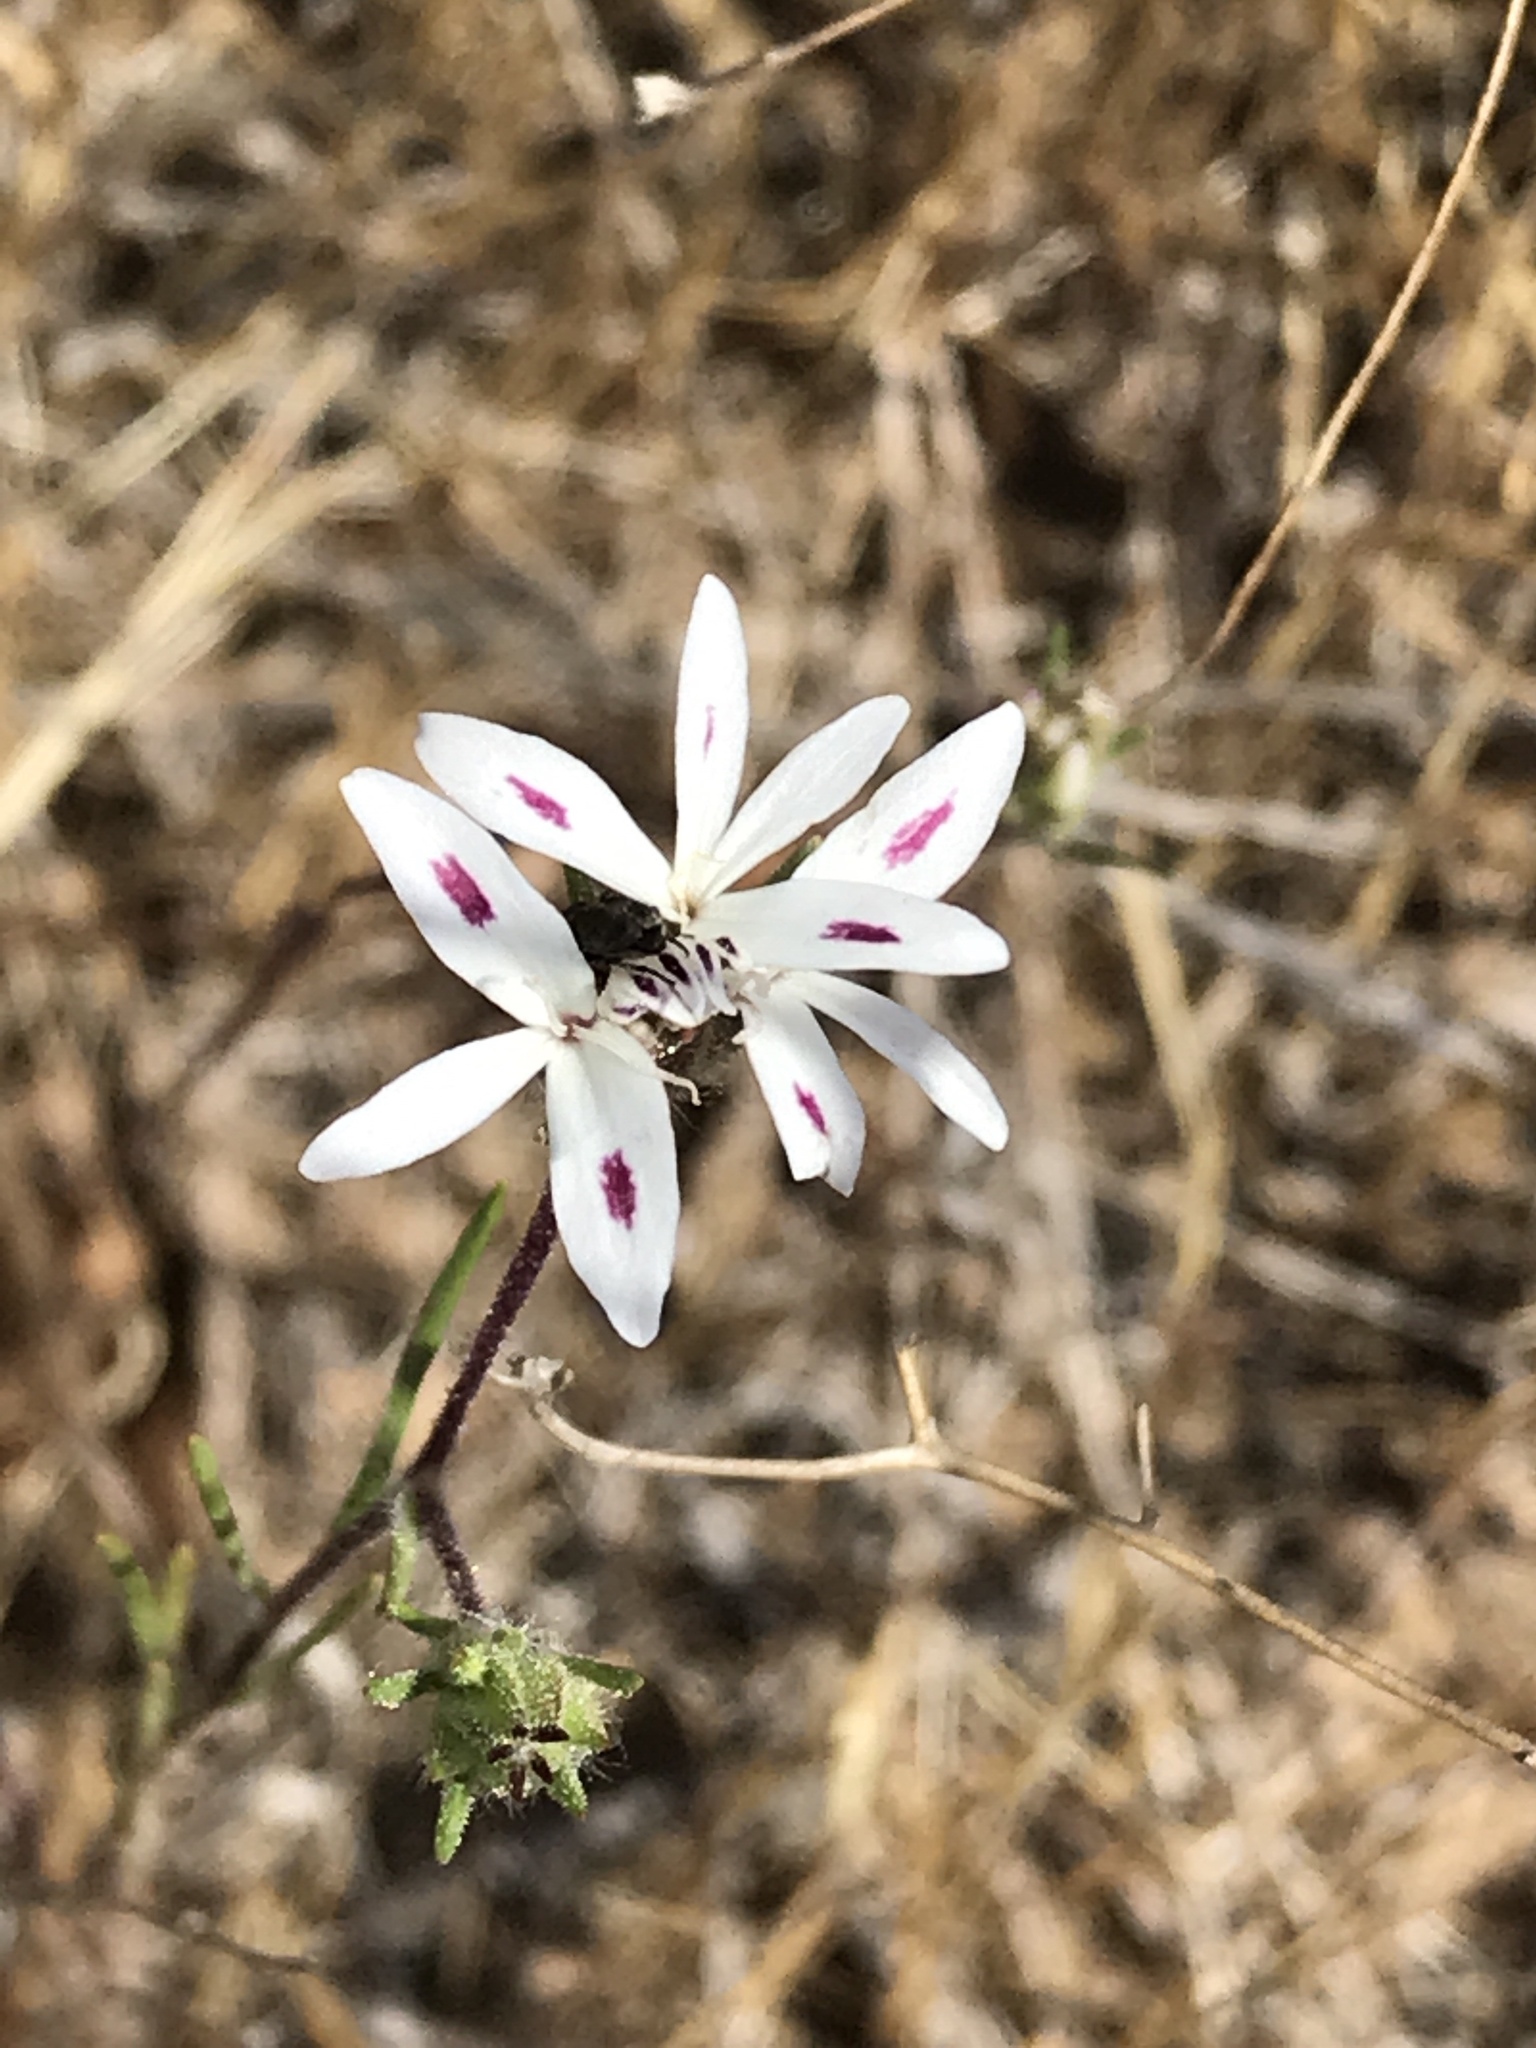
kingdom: Plantae
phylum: Tracheophyta
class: Magnoliopsida
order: Asterales
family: Asteraceae
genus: Osmadenia
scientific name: Osmadenia tenella
